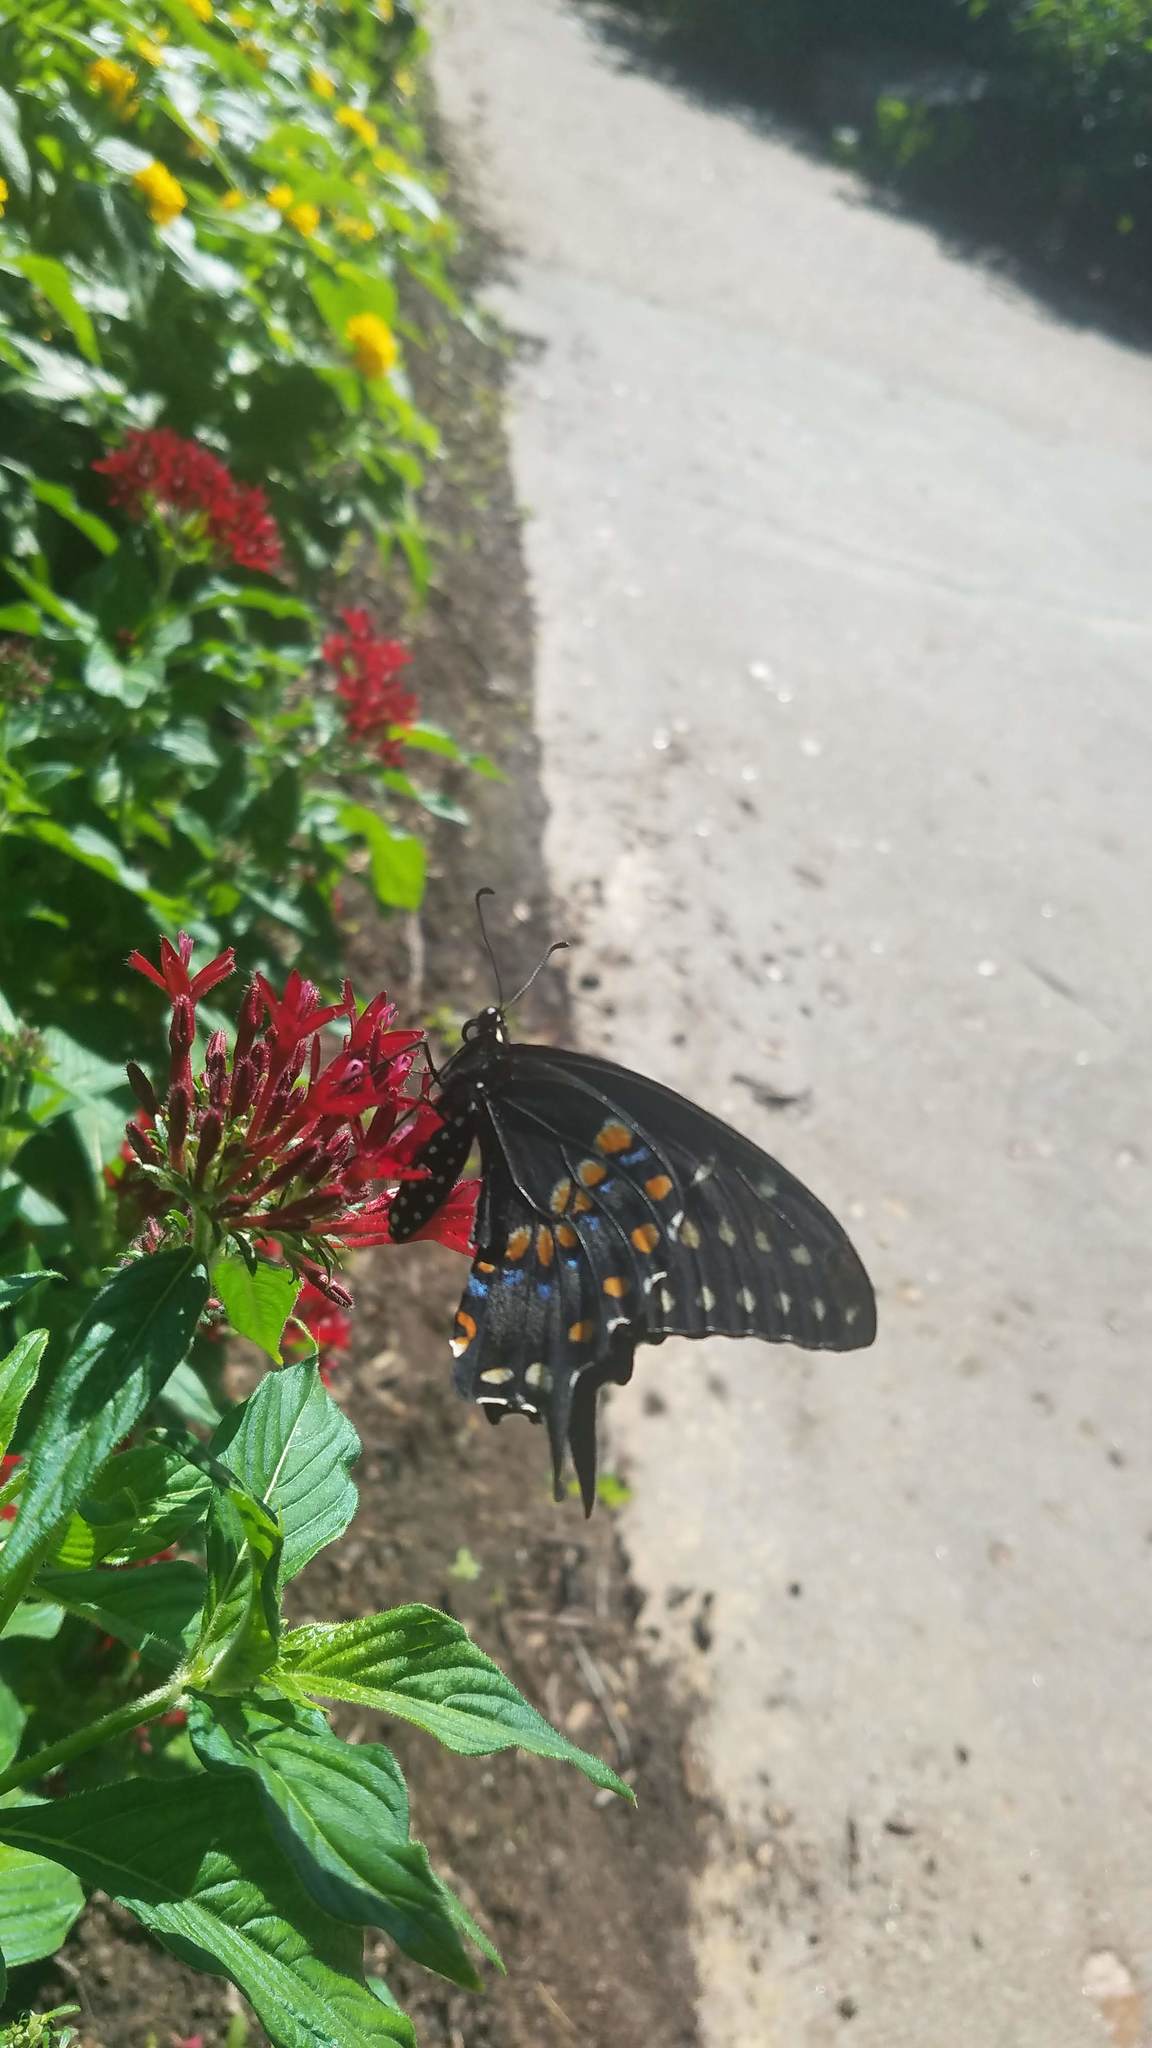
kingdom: Animalia
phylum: Arthropoda
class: Insecta
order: Lepidoptera
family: Papilionidae
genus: Papilio
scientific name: Papilio polyxenes
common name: Black swallowtail
